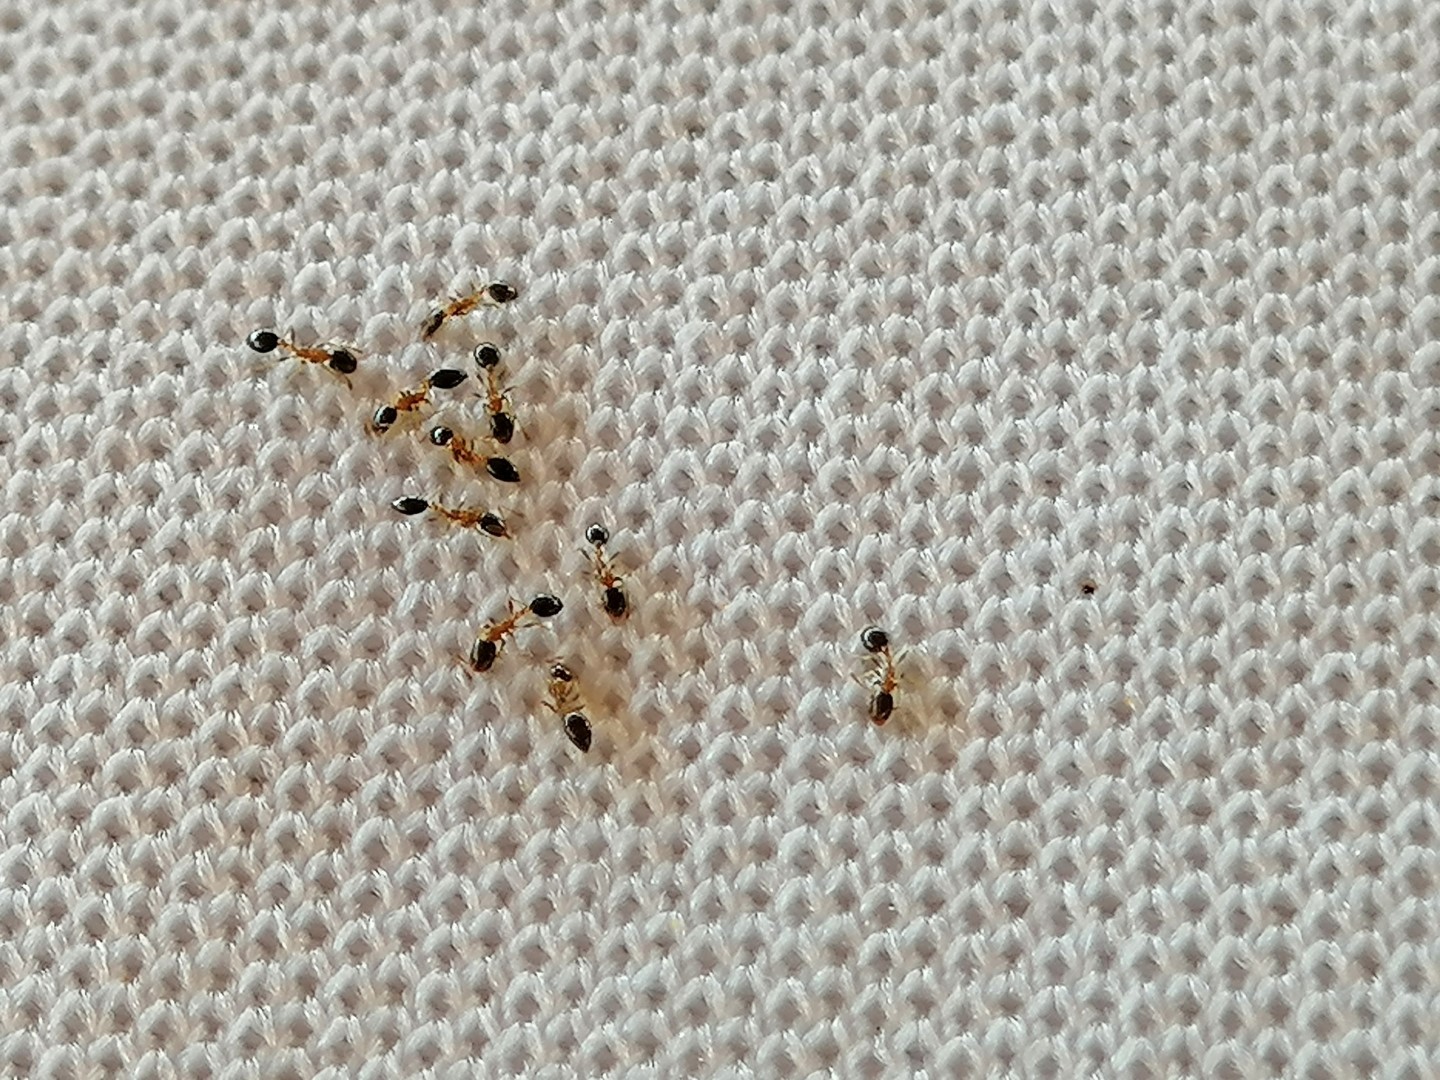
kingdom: Animalia
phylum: Arthropoda
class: Insecta
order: Hymenoptera
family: Formicidae
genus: Monomorium
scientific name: Monomorium floricola
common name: Bicolored trailing ant
